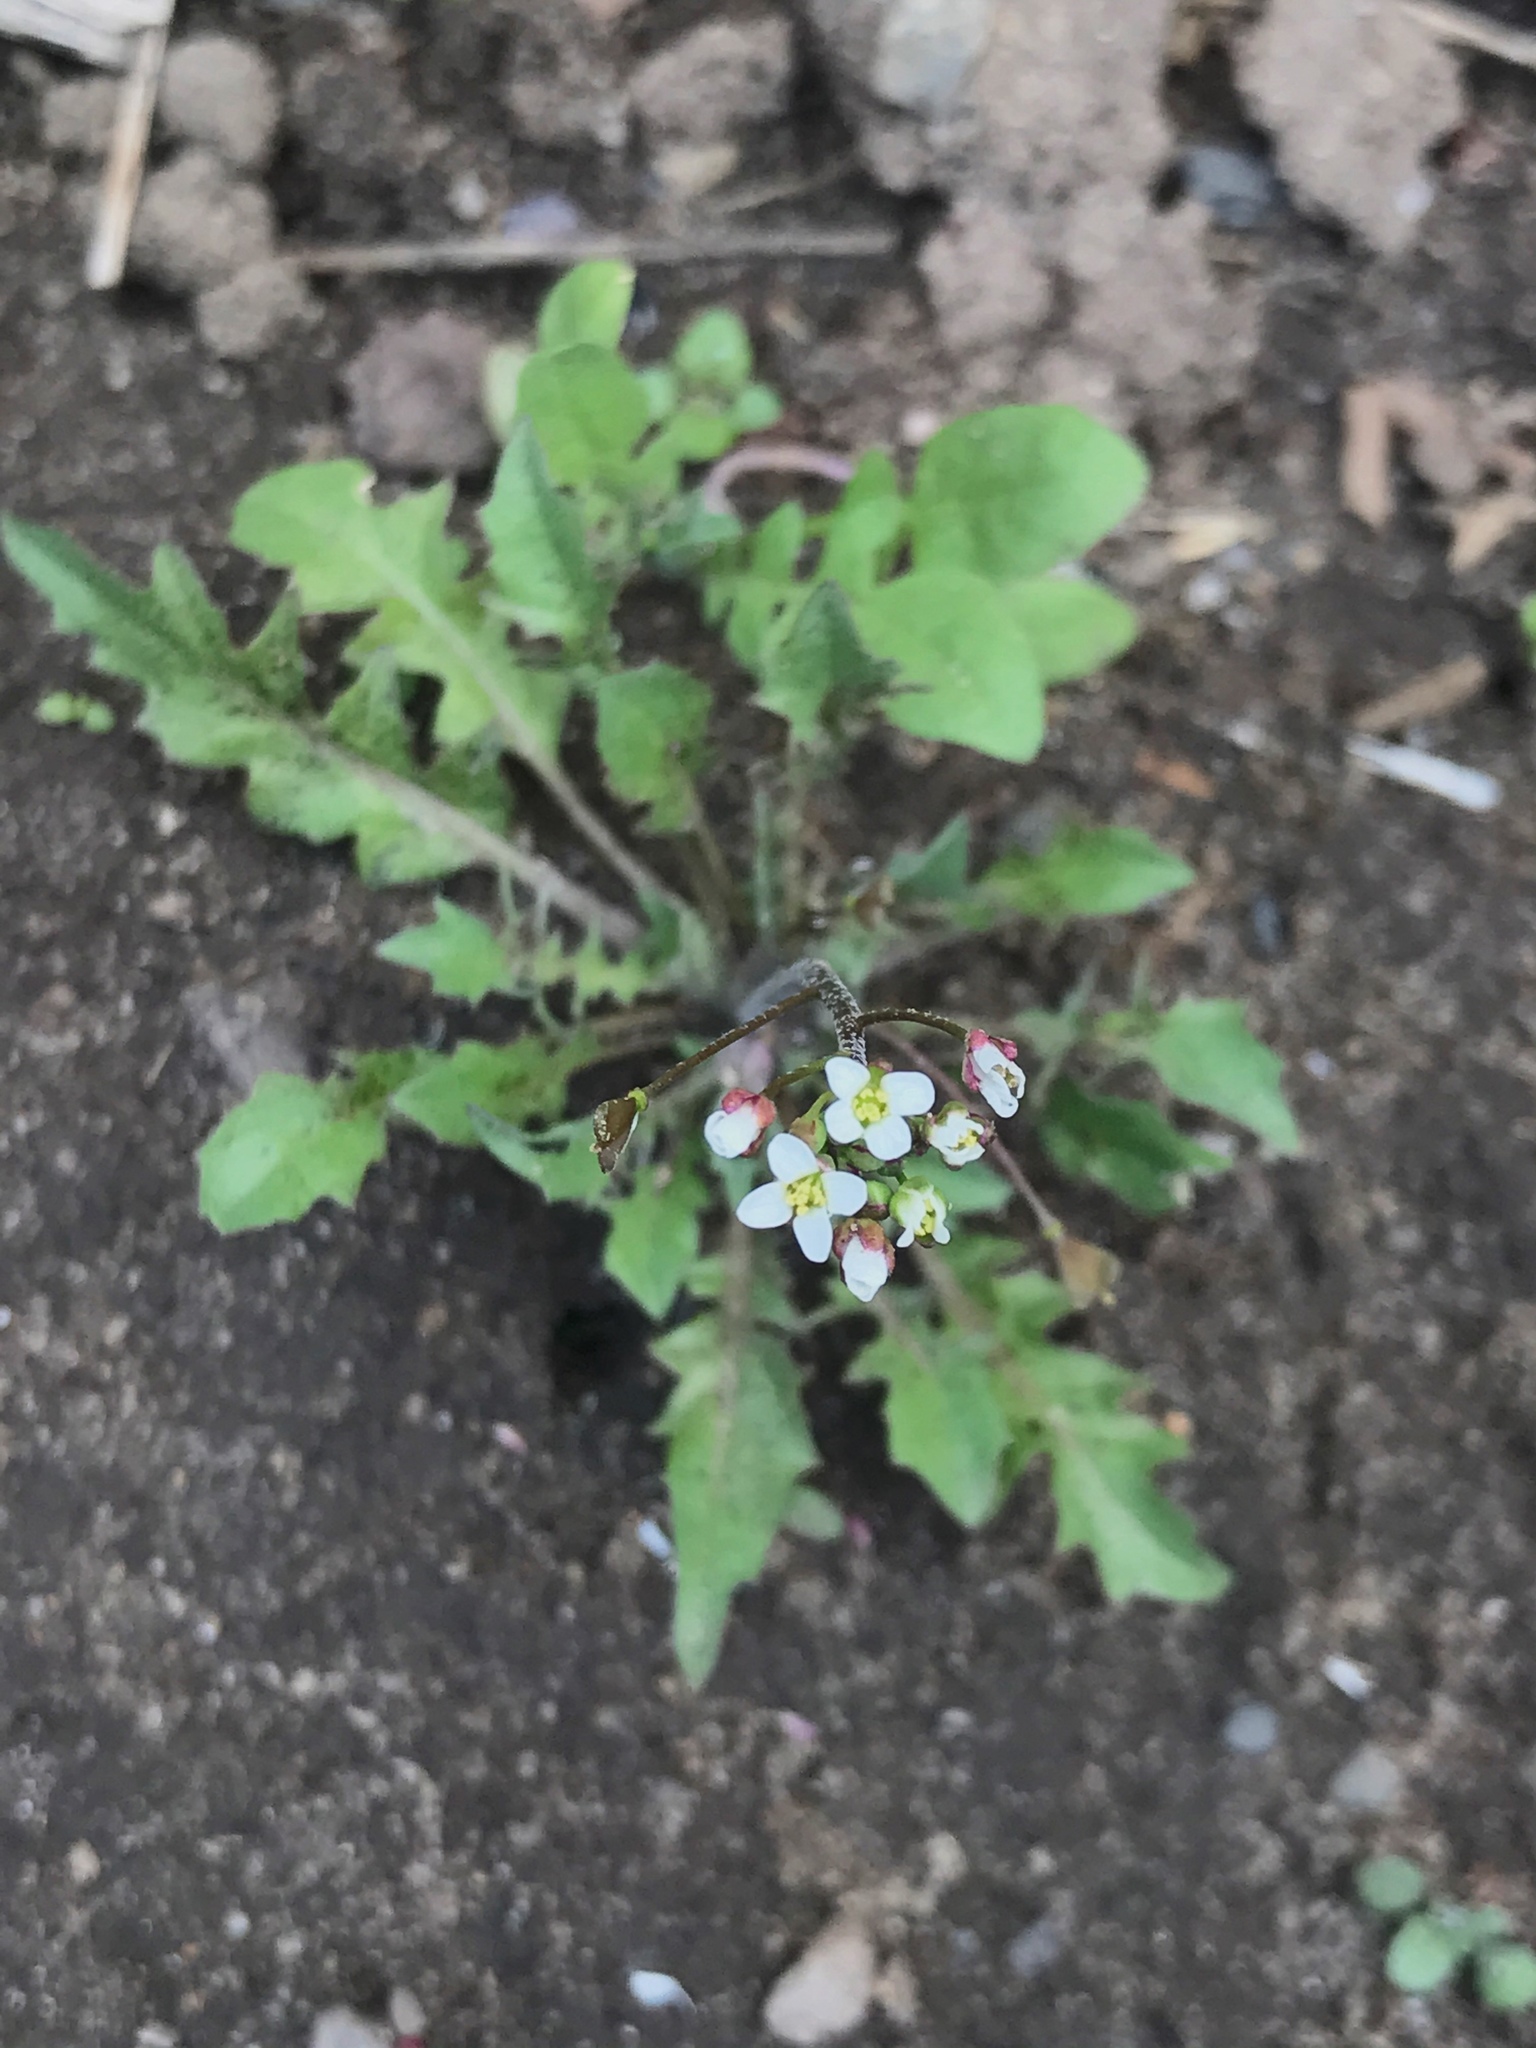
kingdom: Plantae
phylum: Tracheophyta
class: Magnoliopsida
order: Brassicales
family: Brassicaceae
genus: Capsella
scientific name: Capsella bursa-pastoris
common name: Shepherd's purse
